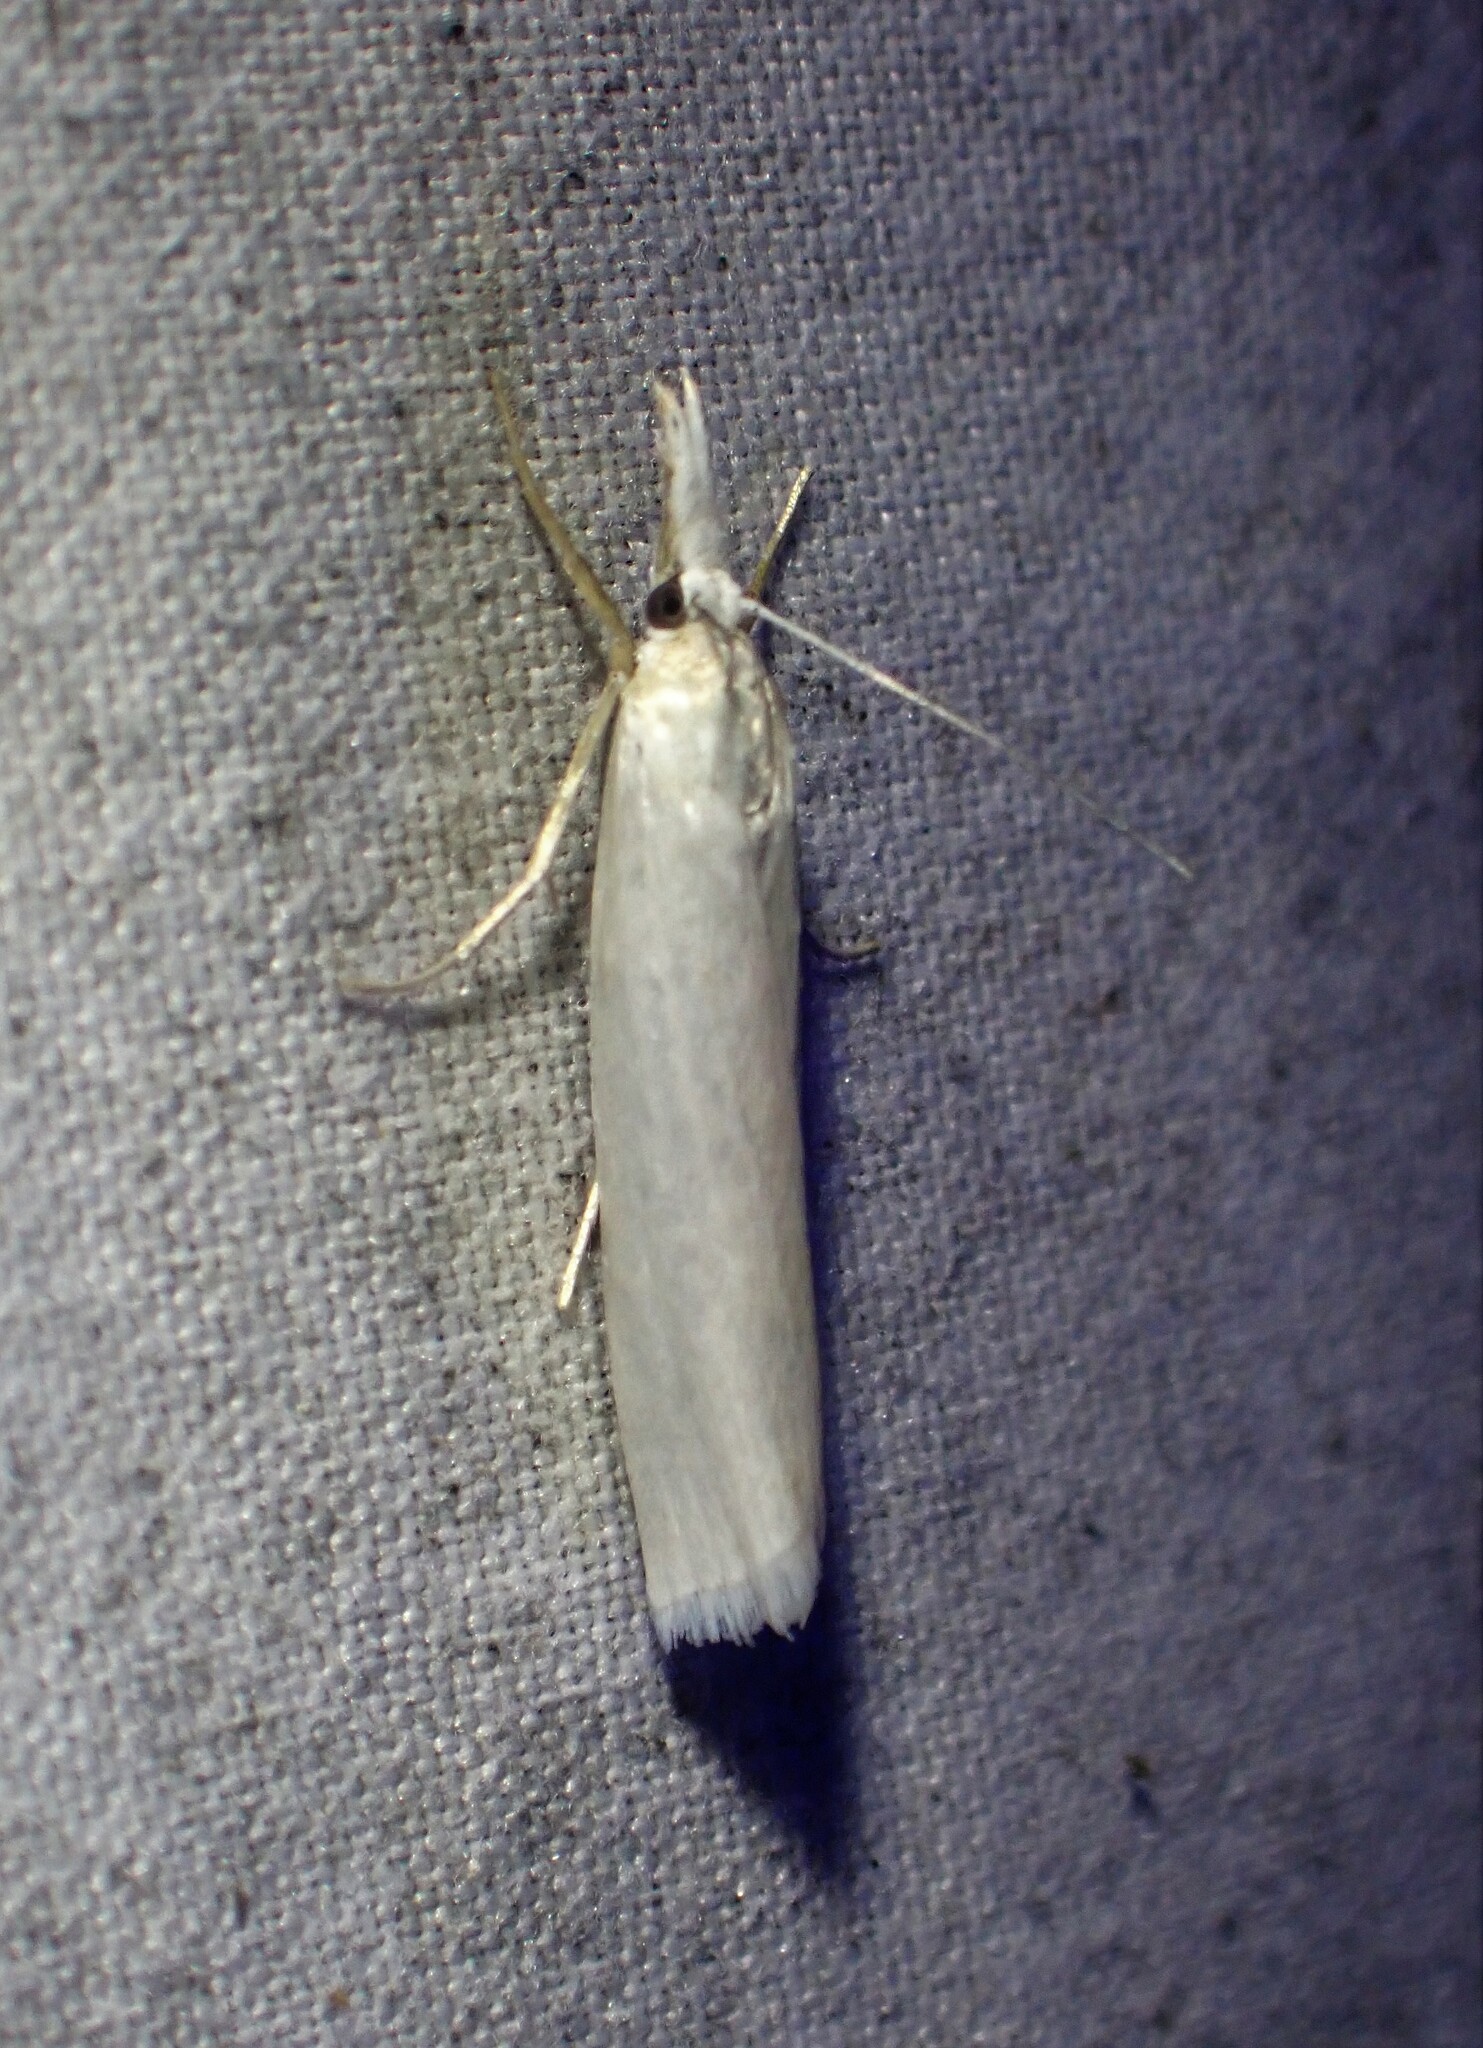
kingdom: Animalia
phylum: Arthropoda
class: Insecta
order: Lepidoptera
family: Crambidae
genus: Crambus
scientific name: Crambus perlellus
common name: Yellow satin veneer
